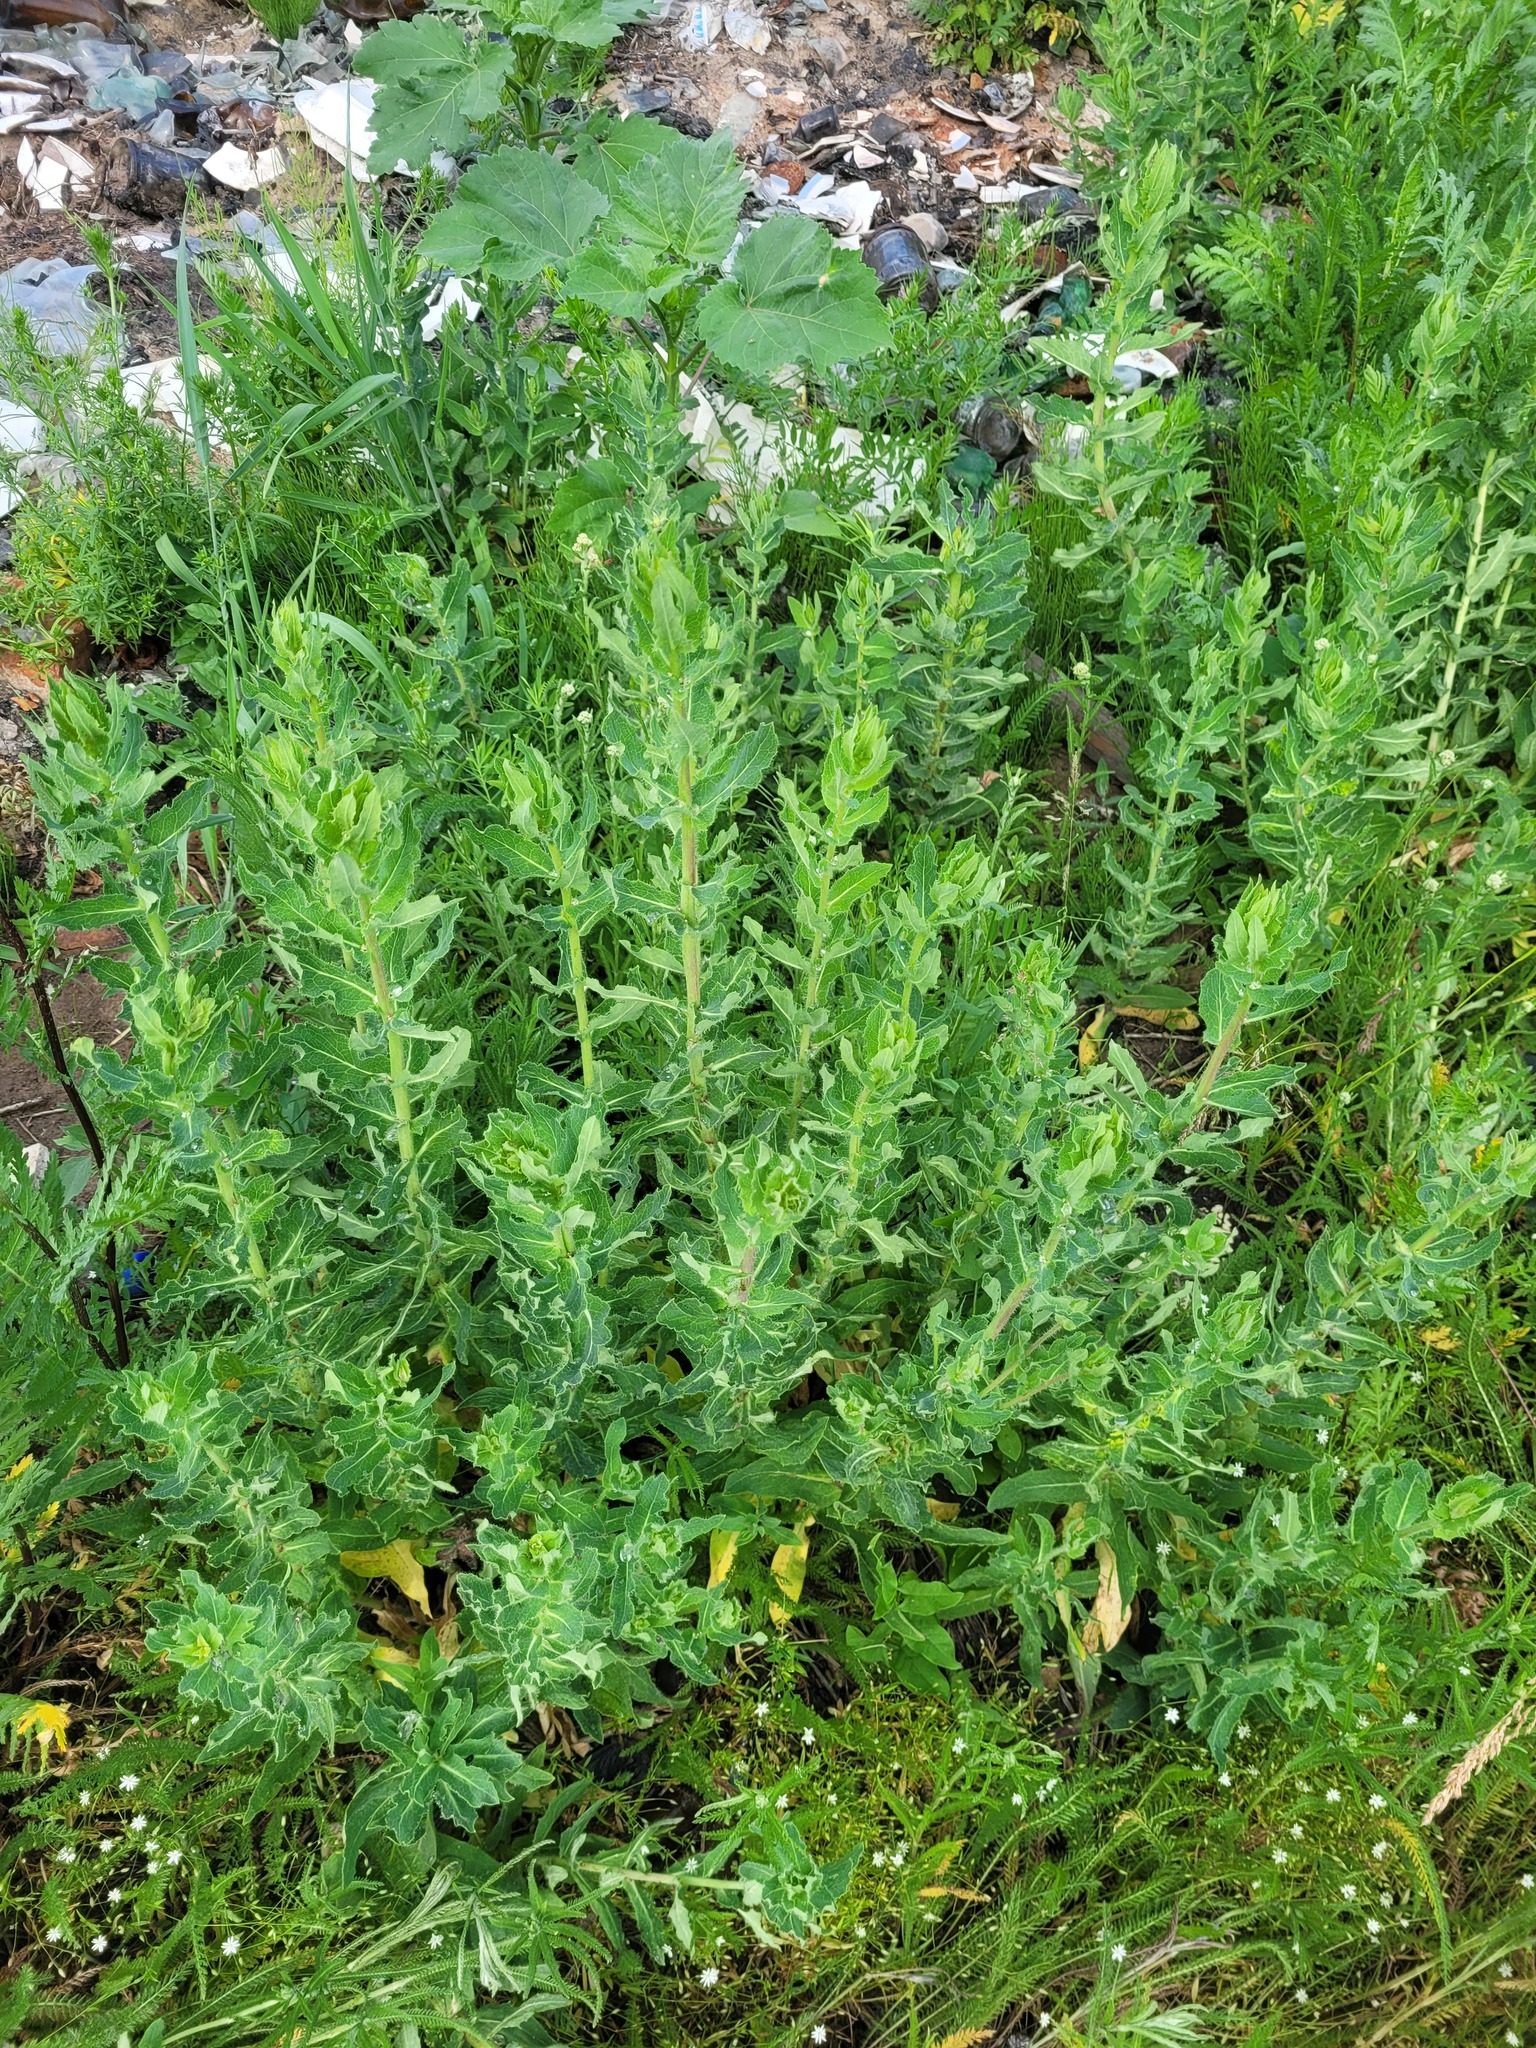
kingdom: Plantae
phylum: Tracheophyta
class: Magnoliopsida
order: Asterales
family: Asteraceae
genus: Hieracium
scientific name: Hieracium virosum
